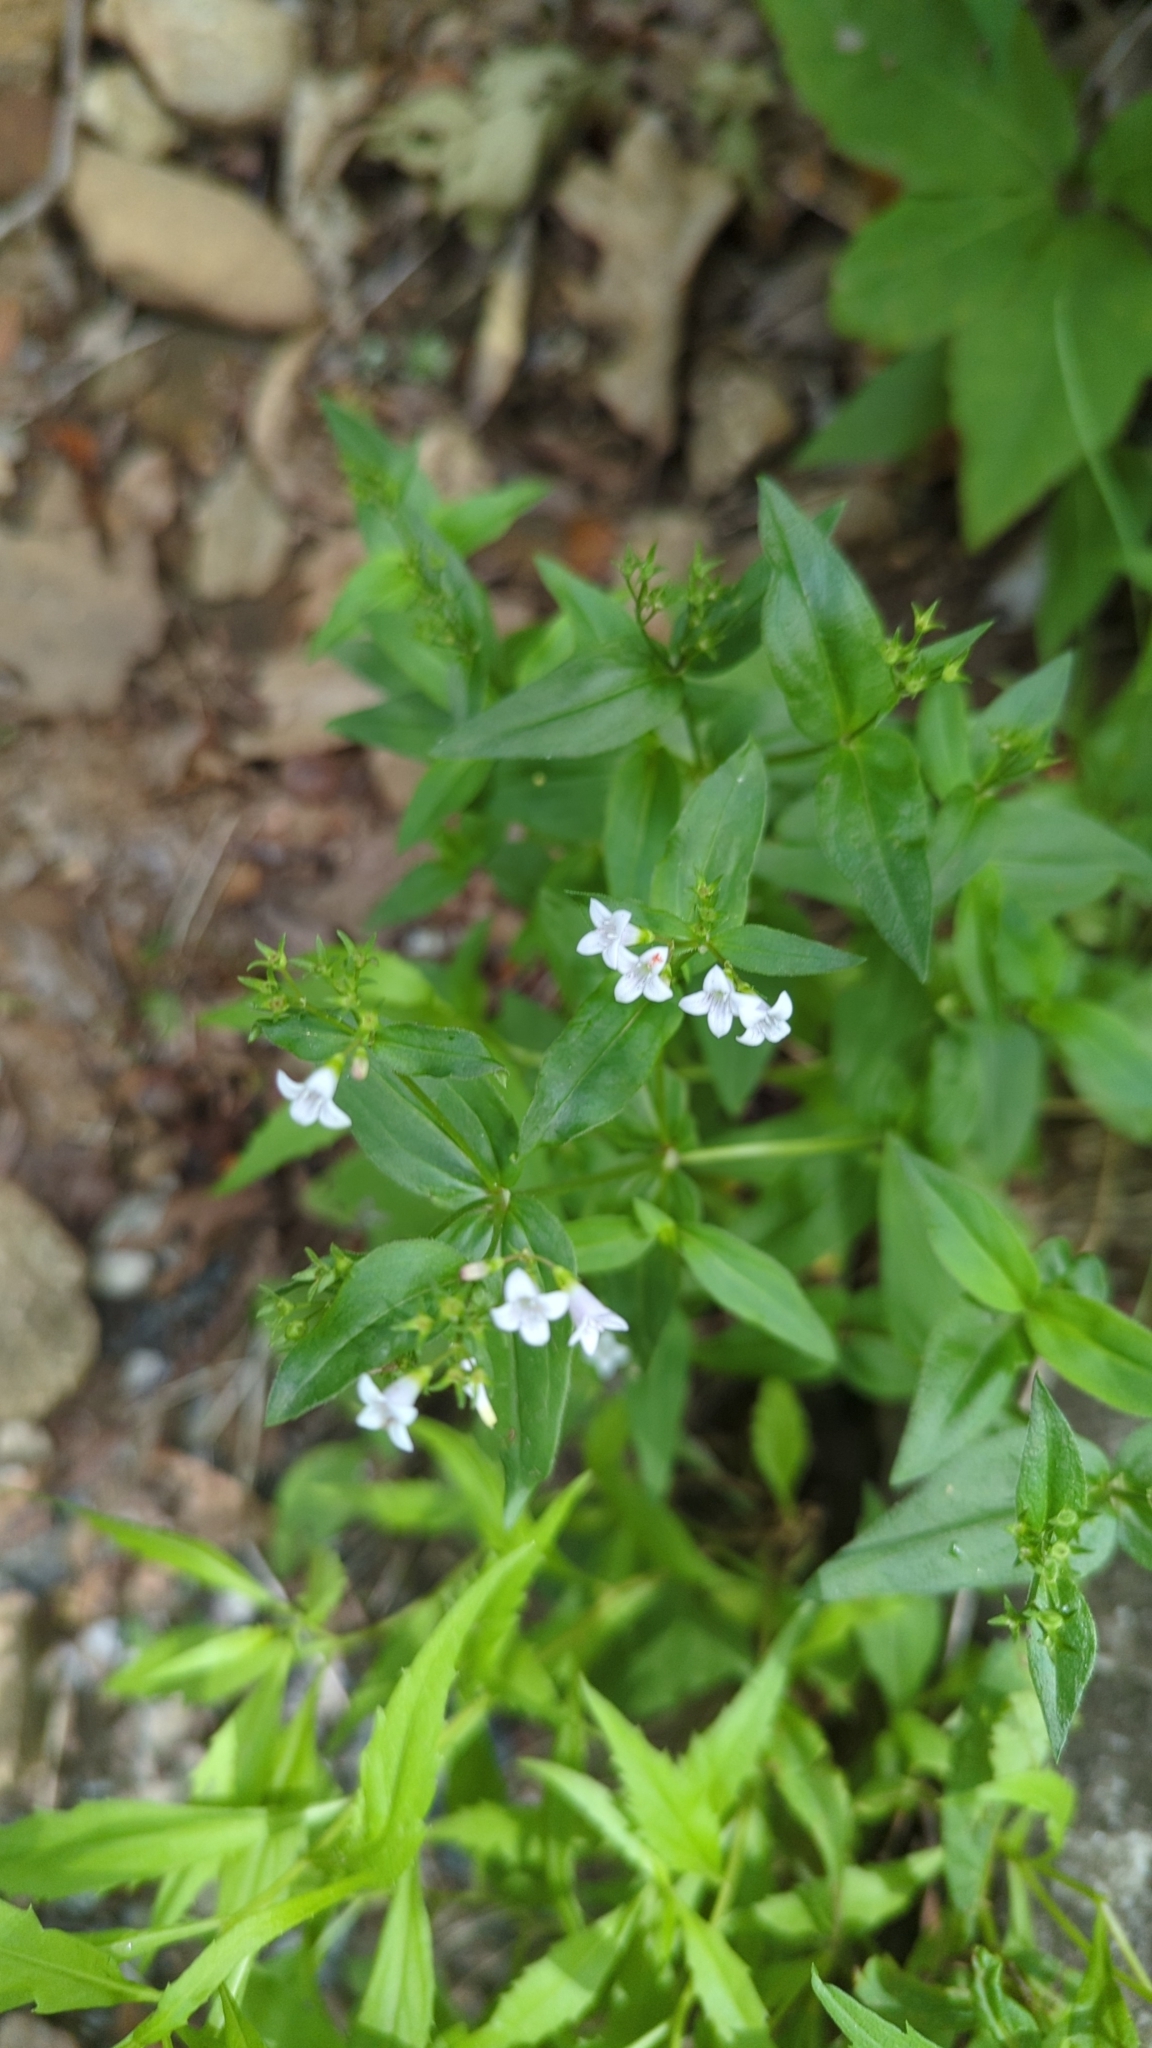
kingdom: Plantae
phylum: Tracheophyta
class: Magnoliopsida
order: Gentianales
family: Rubiaceae
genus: Houstonia
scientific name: Houstonia purpurea
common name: Summer bluet
